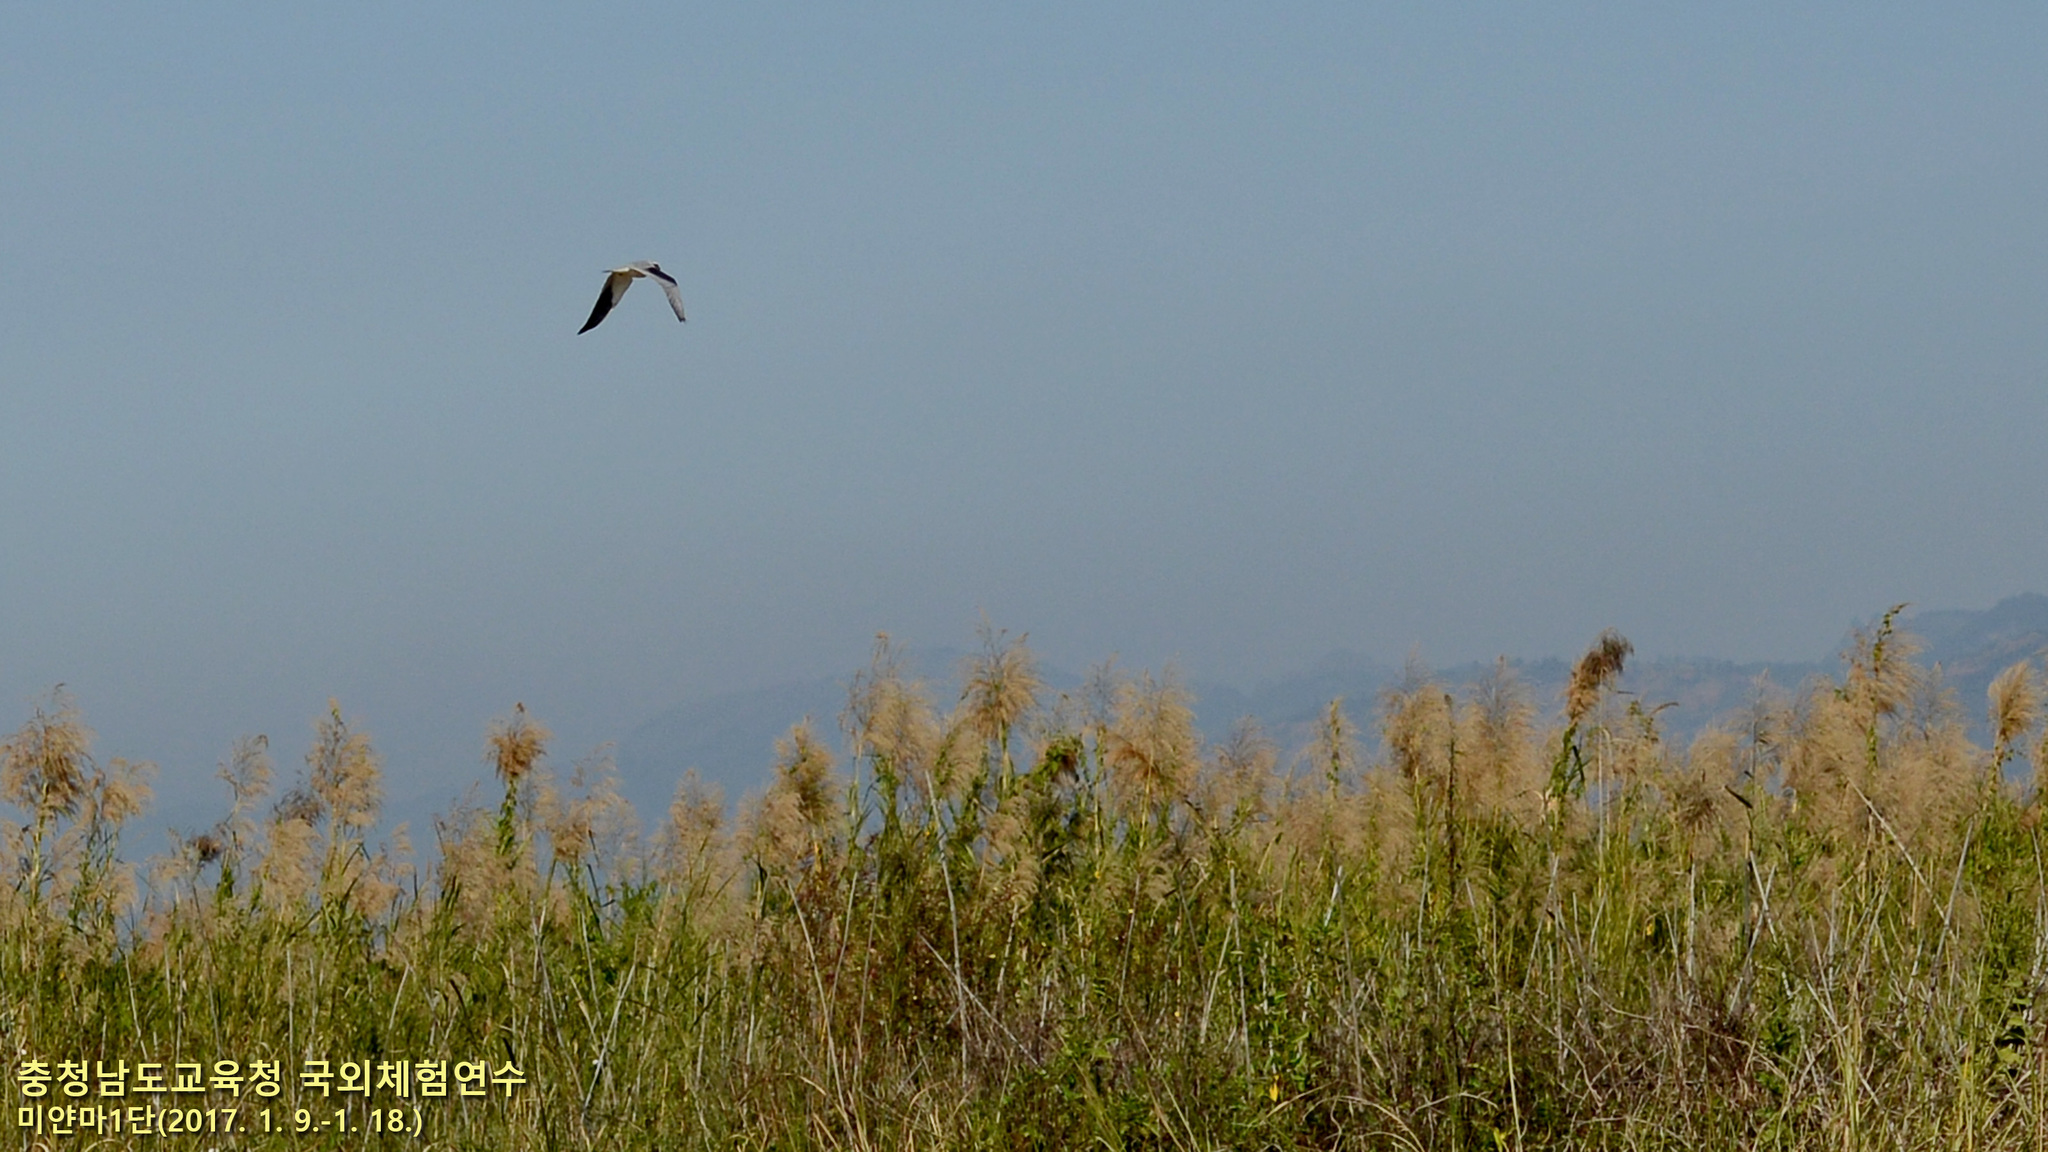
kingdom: Animalia
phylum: Chordata
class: Aves
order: Accipitriformes
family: Accipitridae
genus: Elanus
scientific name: Elanus caeruleus
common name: Black-winged kite
